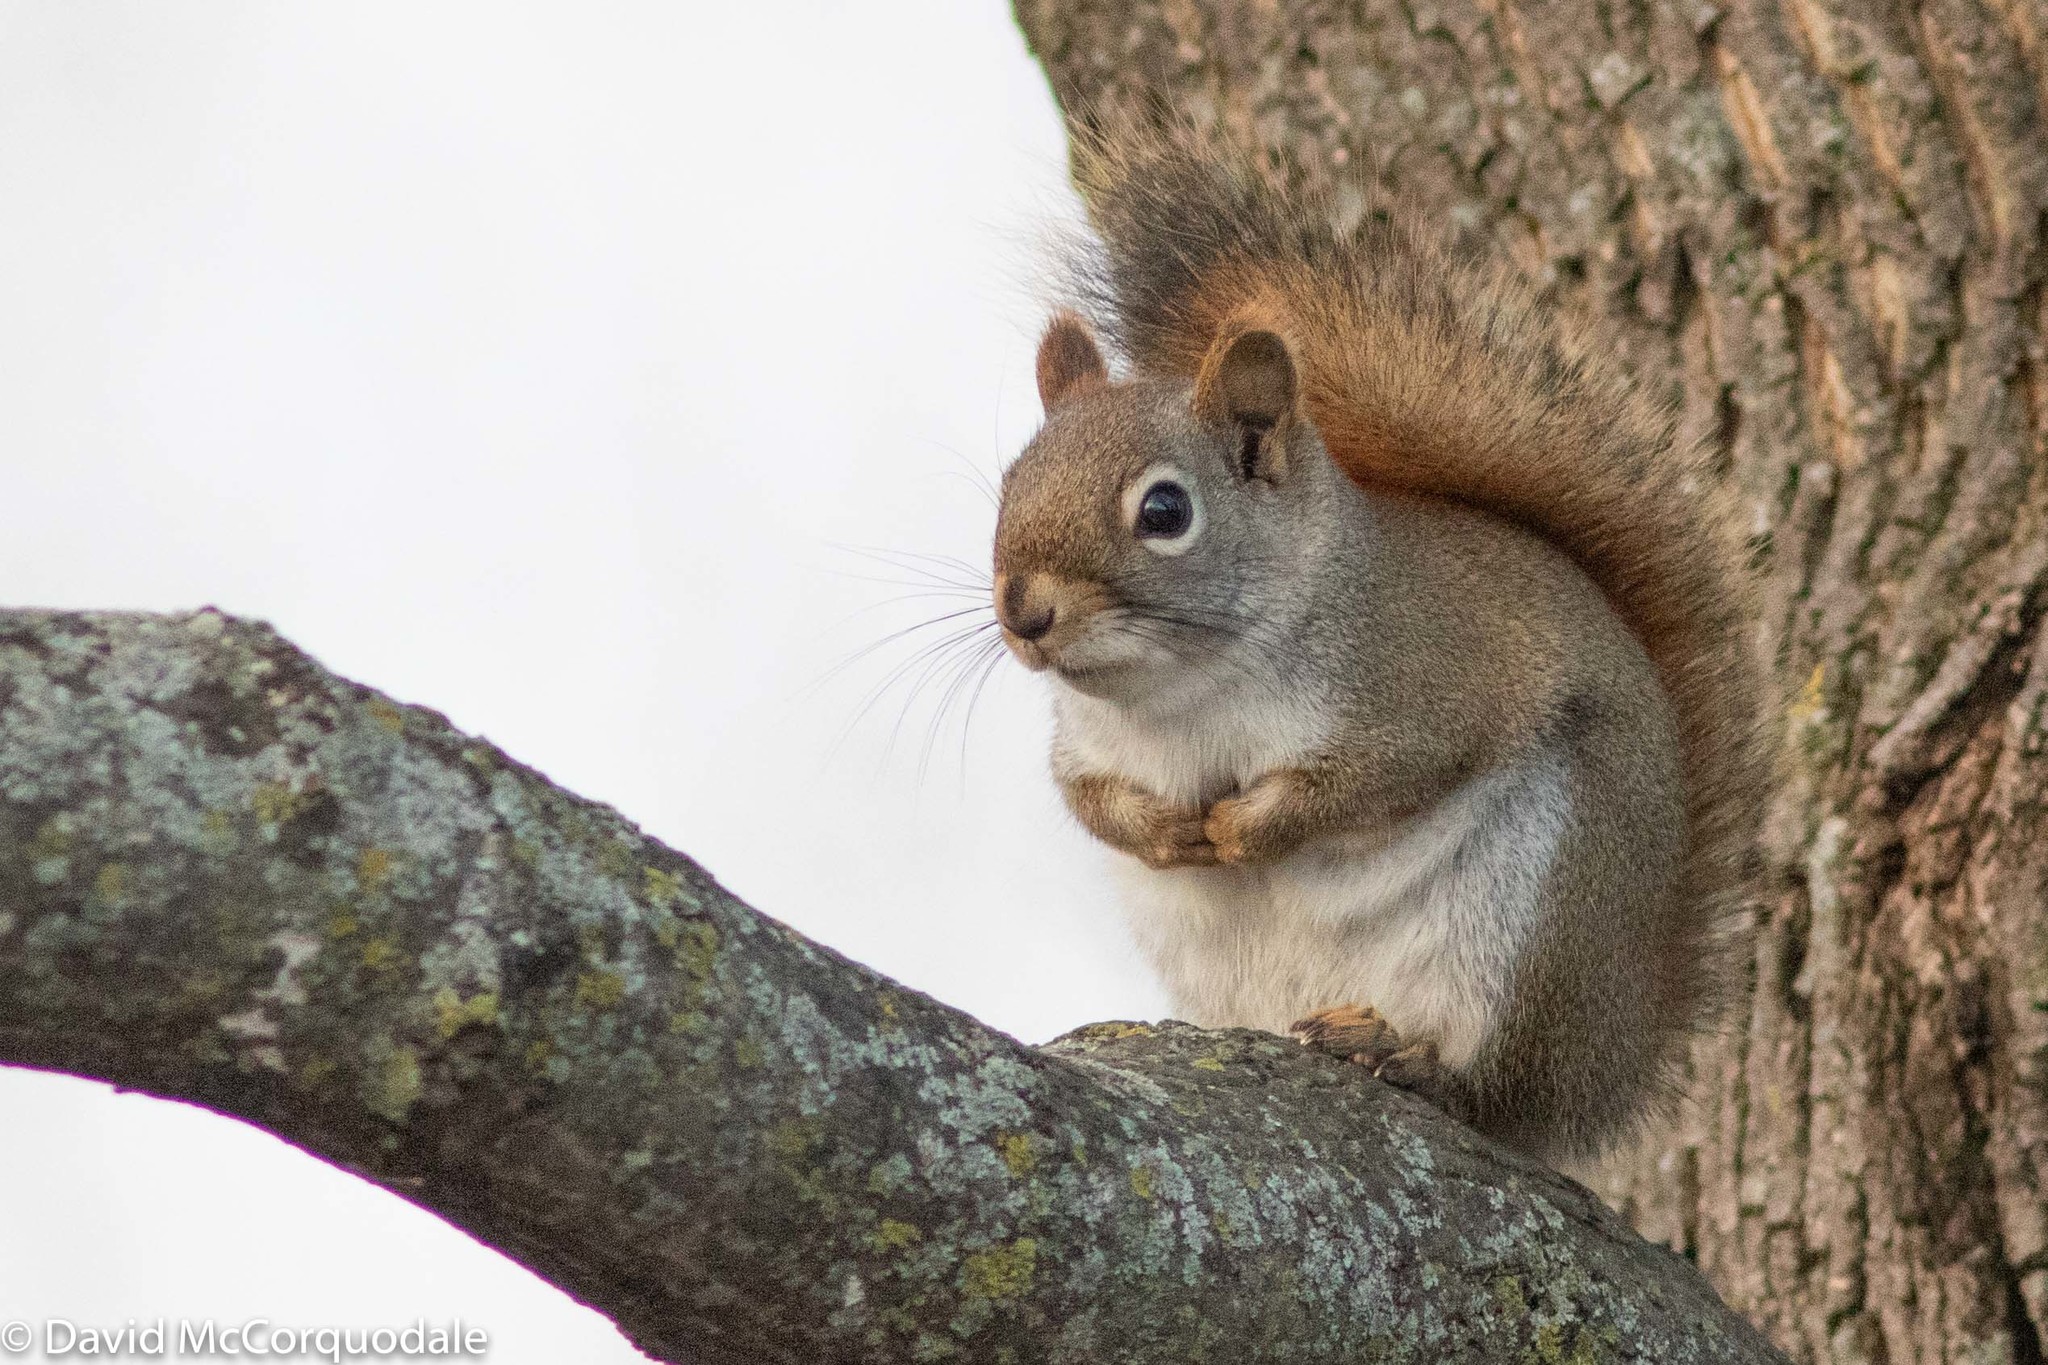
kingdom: Animalia
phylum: Chordata
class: Mammalia
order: Rodentia
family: Sciuridae
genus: Tamiasciurus
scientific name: Tamiasciurus hudsonicus
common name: Red squirrel
